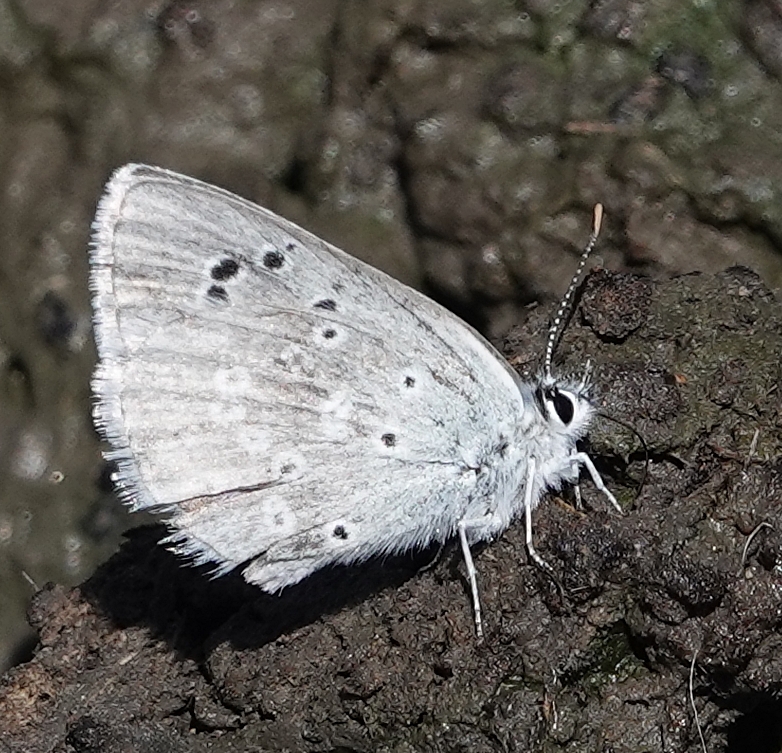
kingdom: Animalia
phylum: Arthropoda
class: Insecta
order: Lepidoptera
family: Lycaenidae
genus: Icaricia
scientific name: Icaricia icarioides
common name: Boisduval's blue
